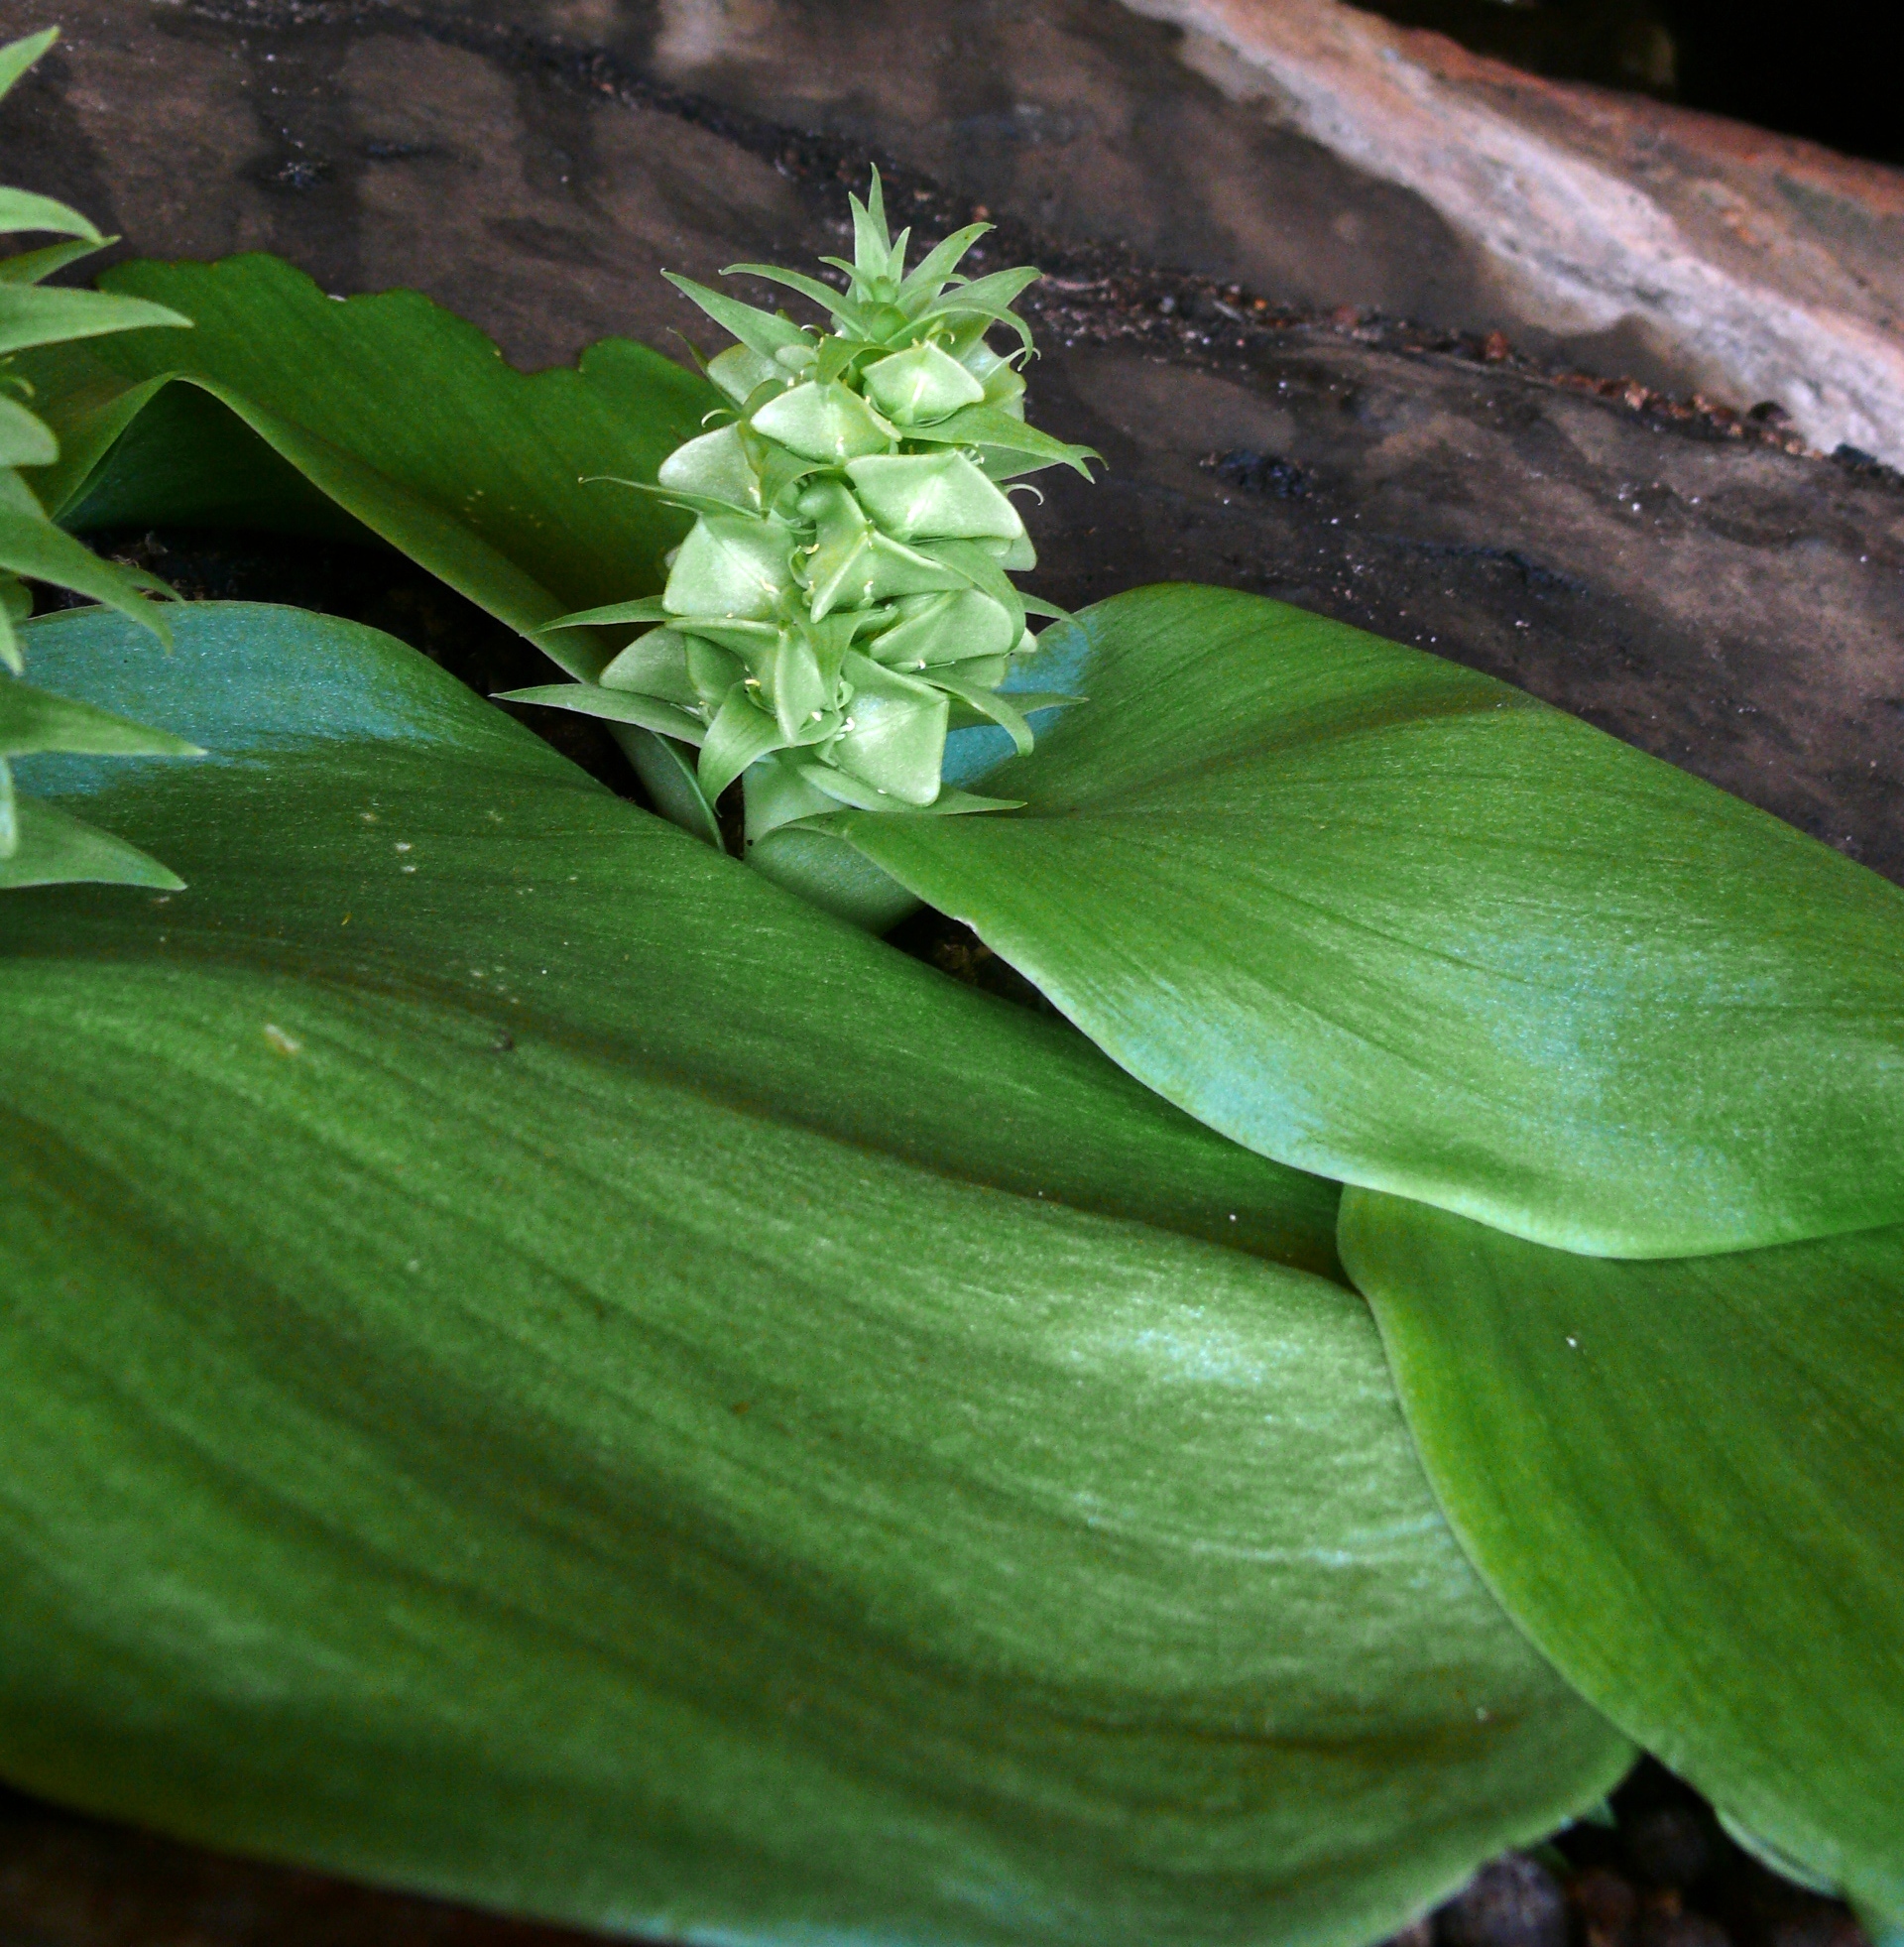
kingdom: Plantae
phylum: Tracheophyta
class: Liliopsida
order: Asparagales
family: Asparagaceae
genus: Massonia
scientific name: Massonia bifolia
